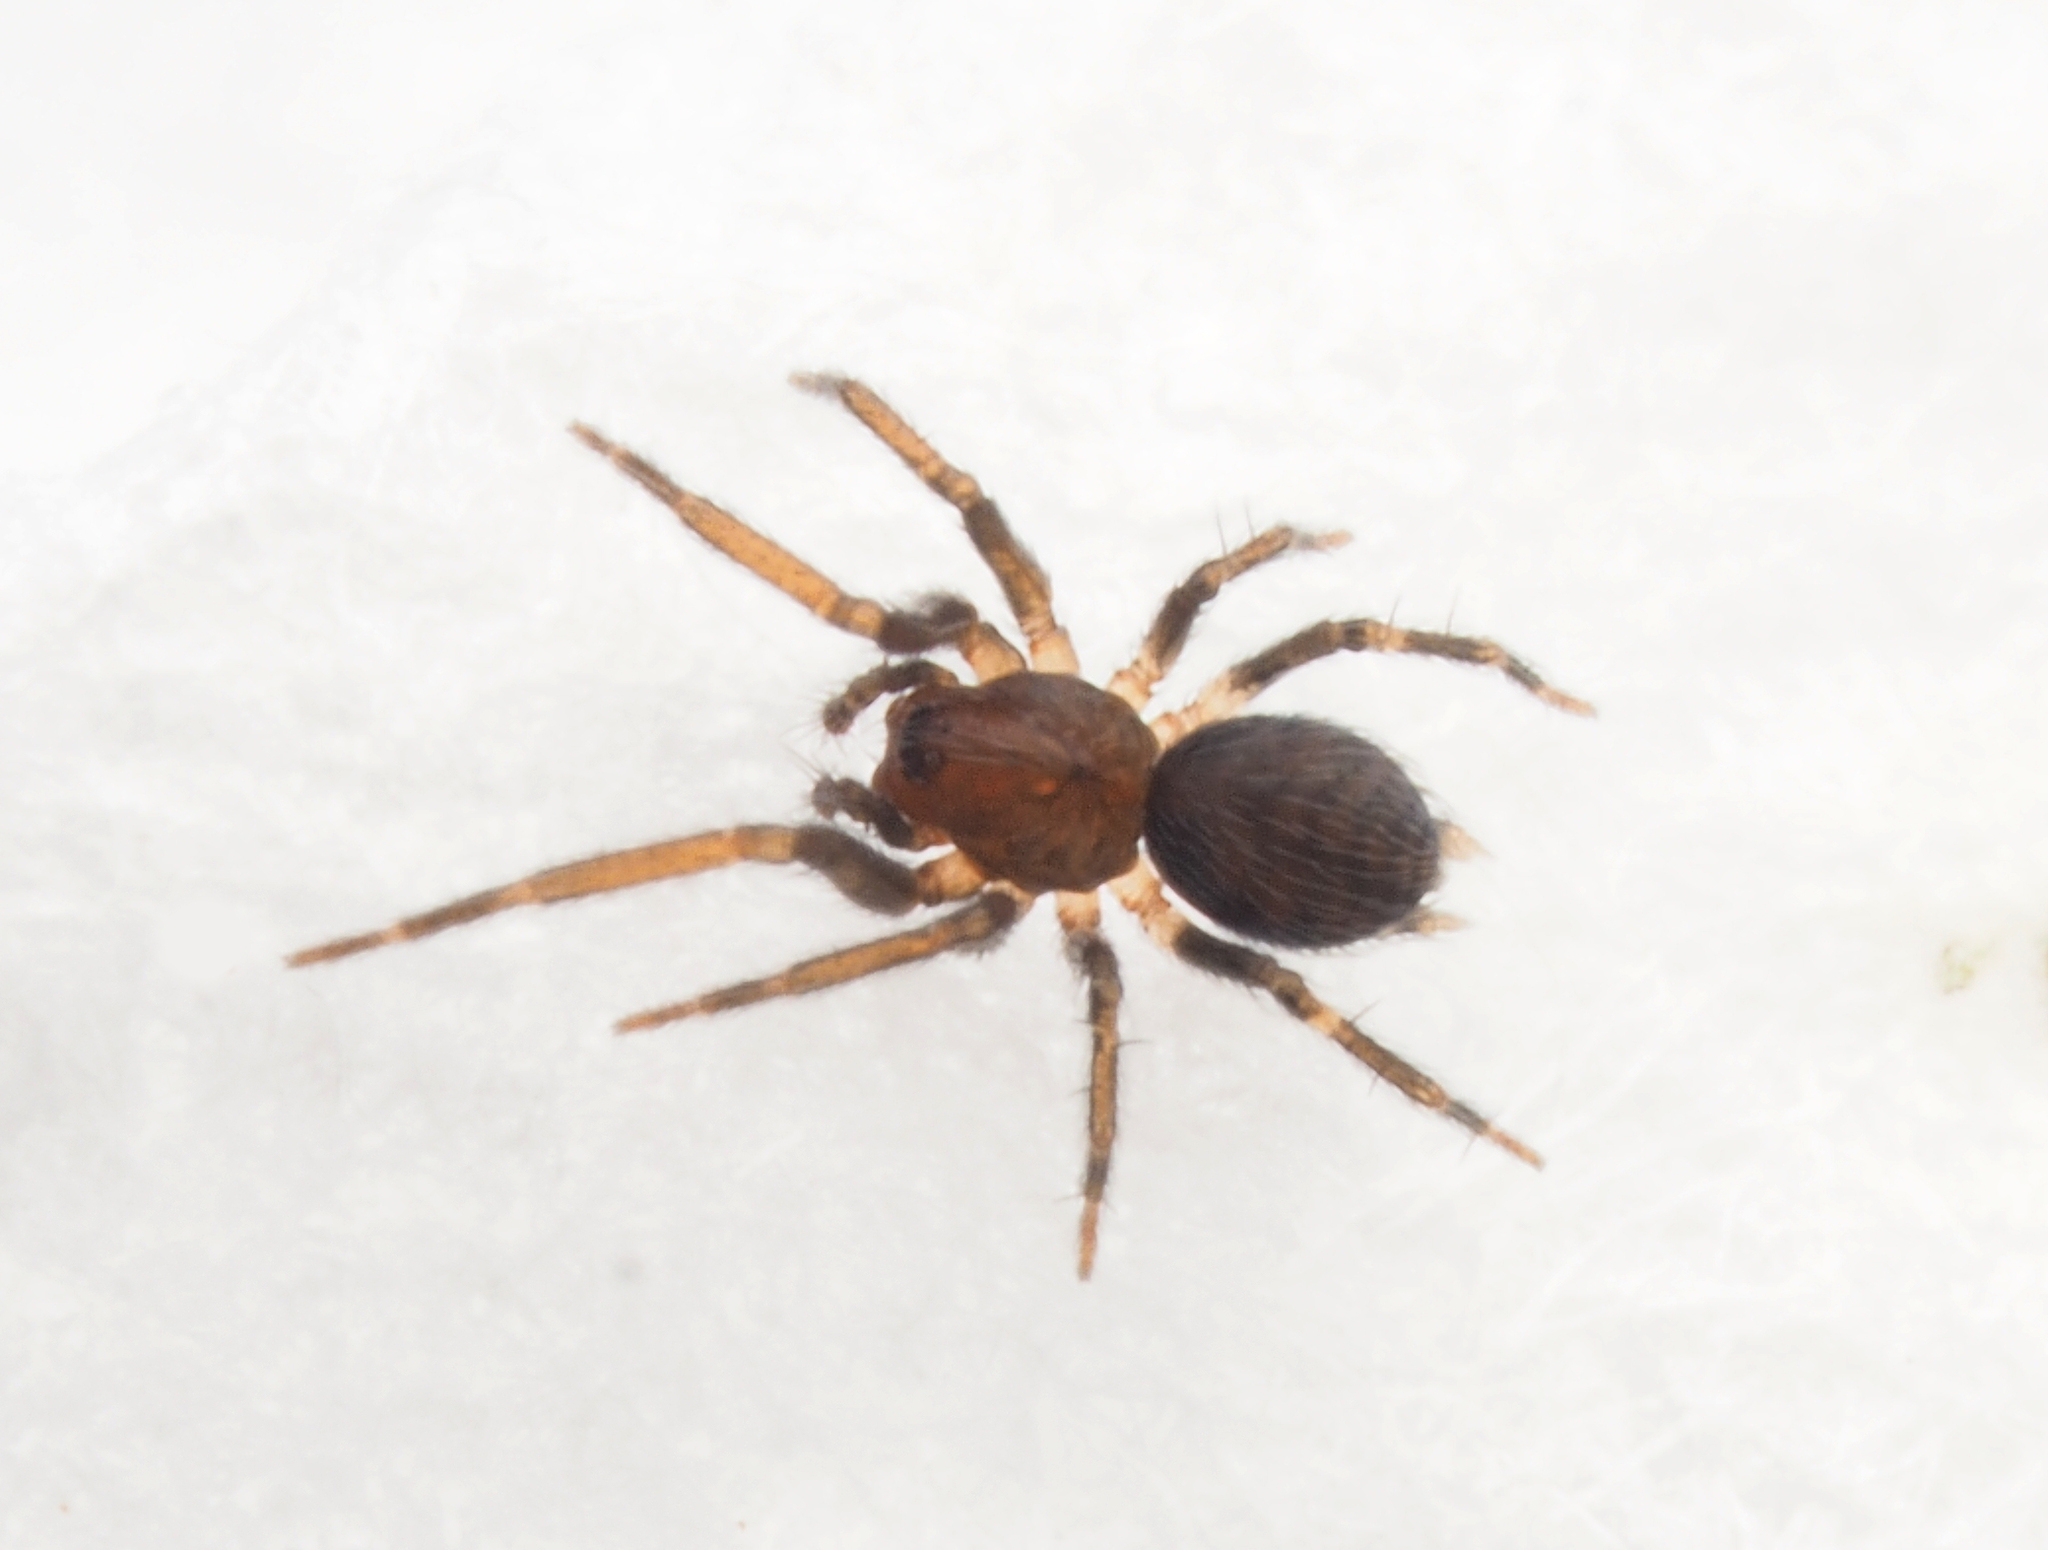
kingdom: Animalia
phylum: Arthropoda
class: Arachnida
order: Araneae
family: Hahniidae
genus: Alistra
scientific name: Alistra
